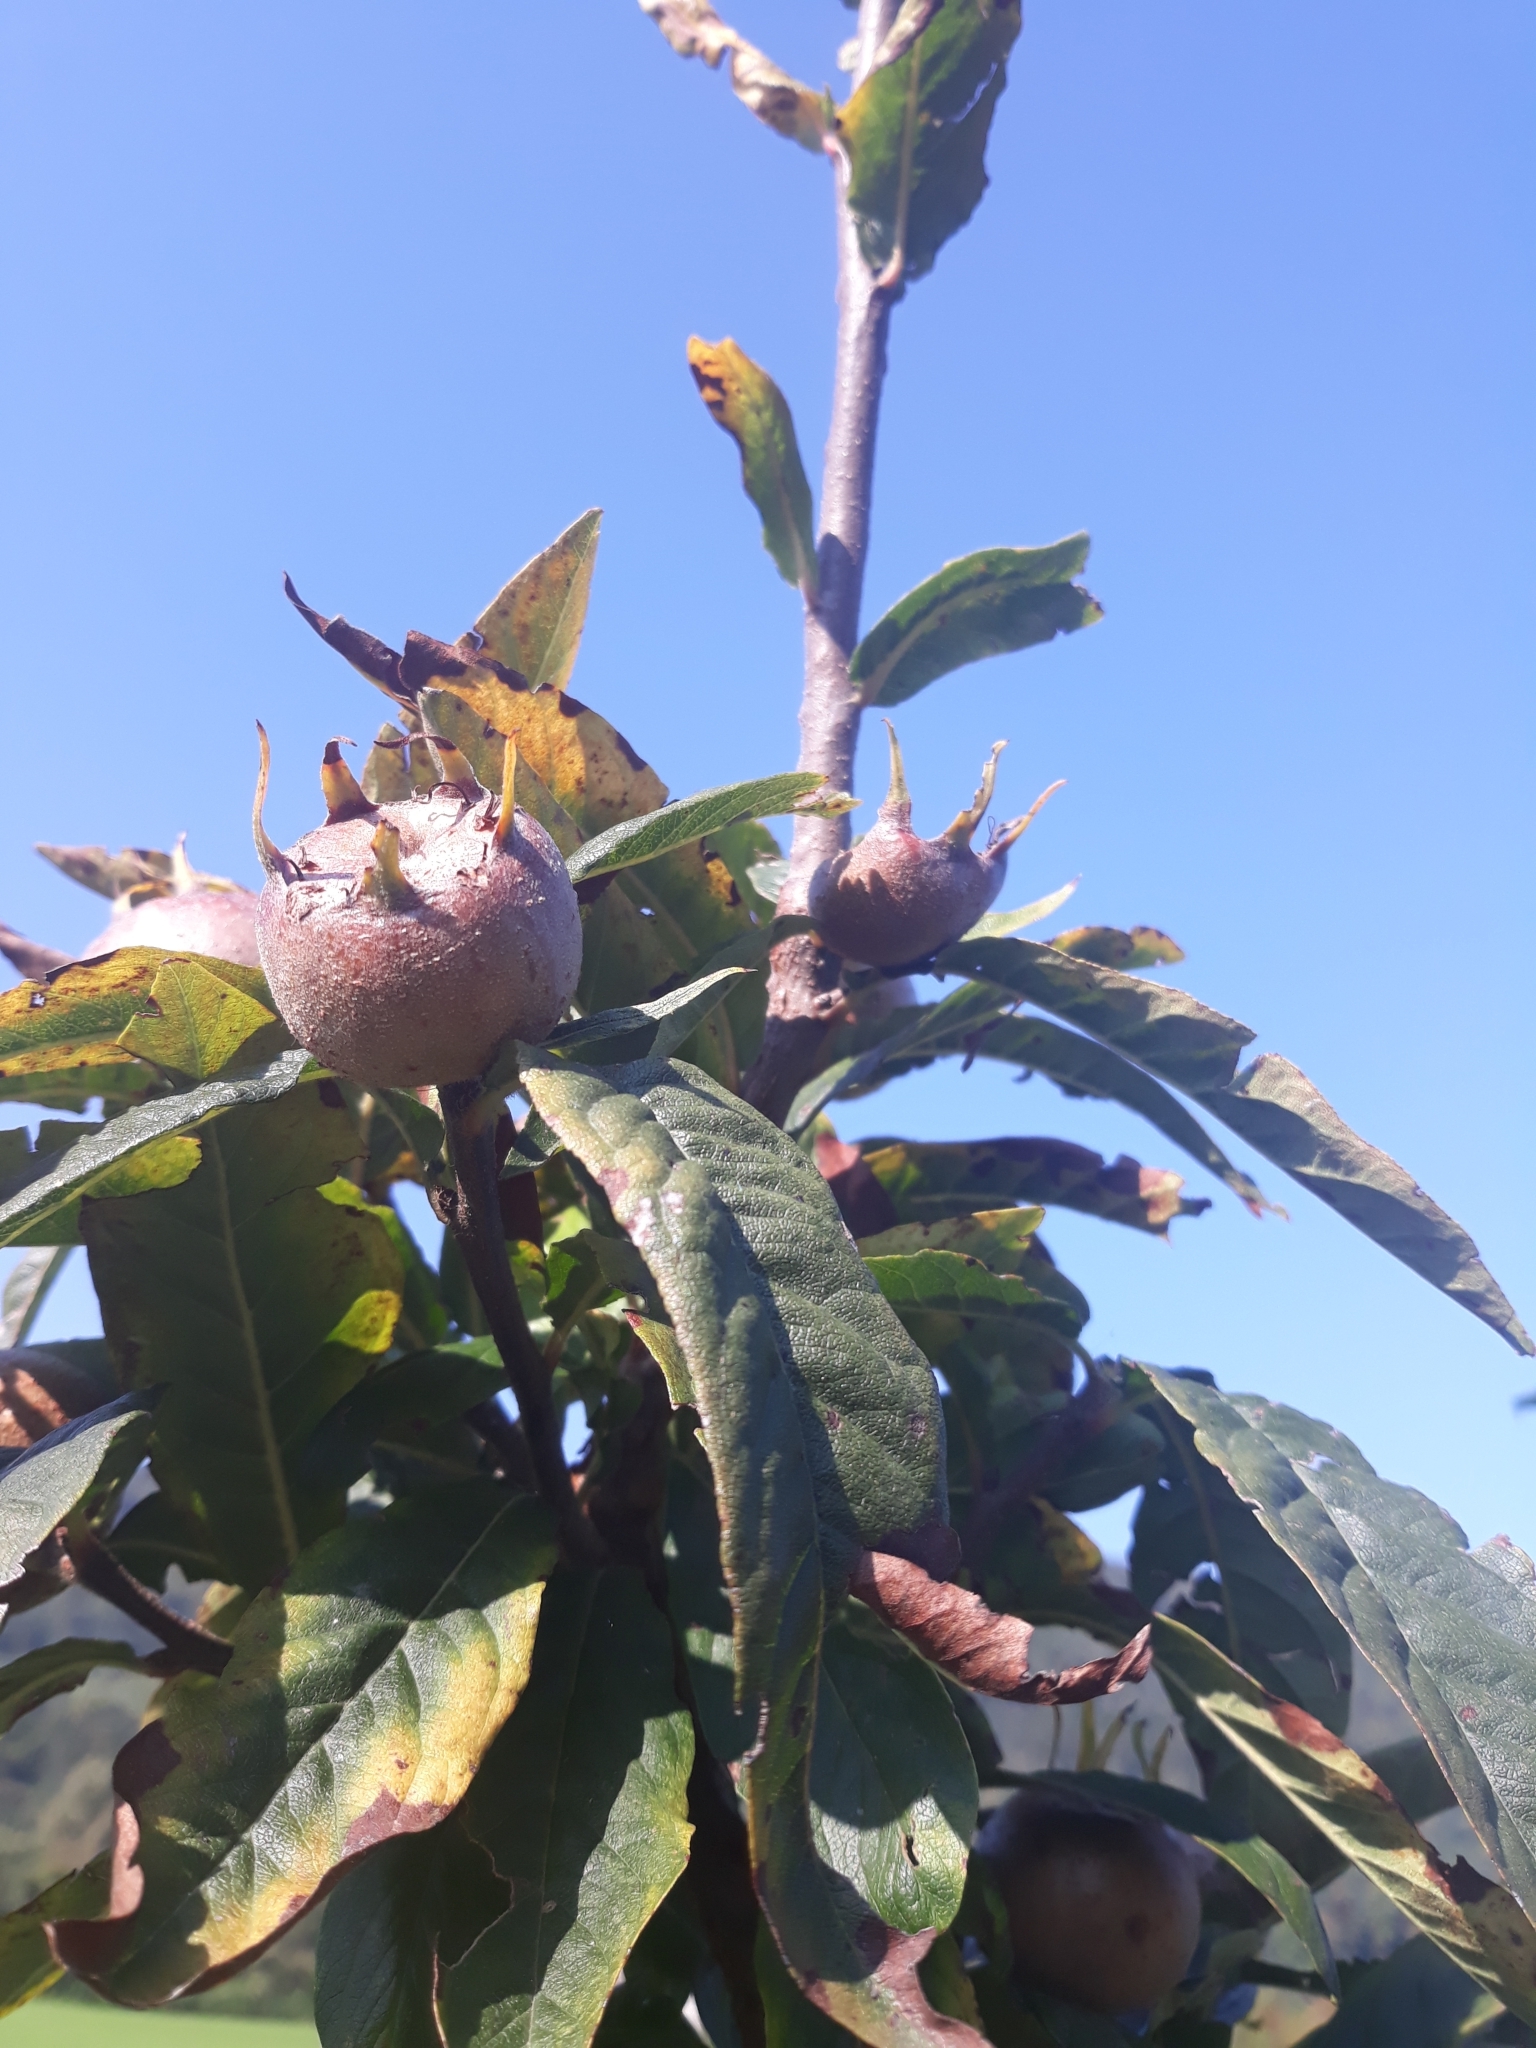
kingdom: Plantae
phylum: Tracheophyta
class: Magnoliopsida
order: Rosales
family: Rosaceae
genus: Mespilus
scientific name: Mespilus germanica
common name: Medlar
